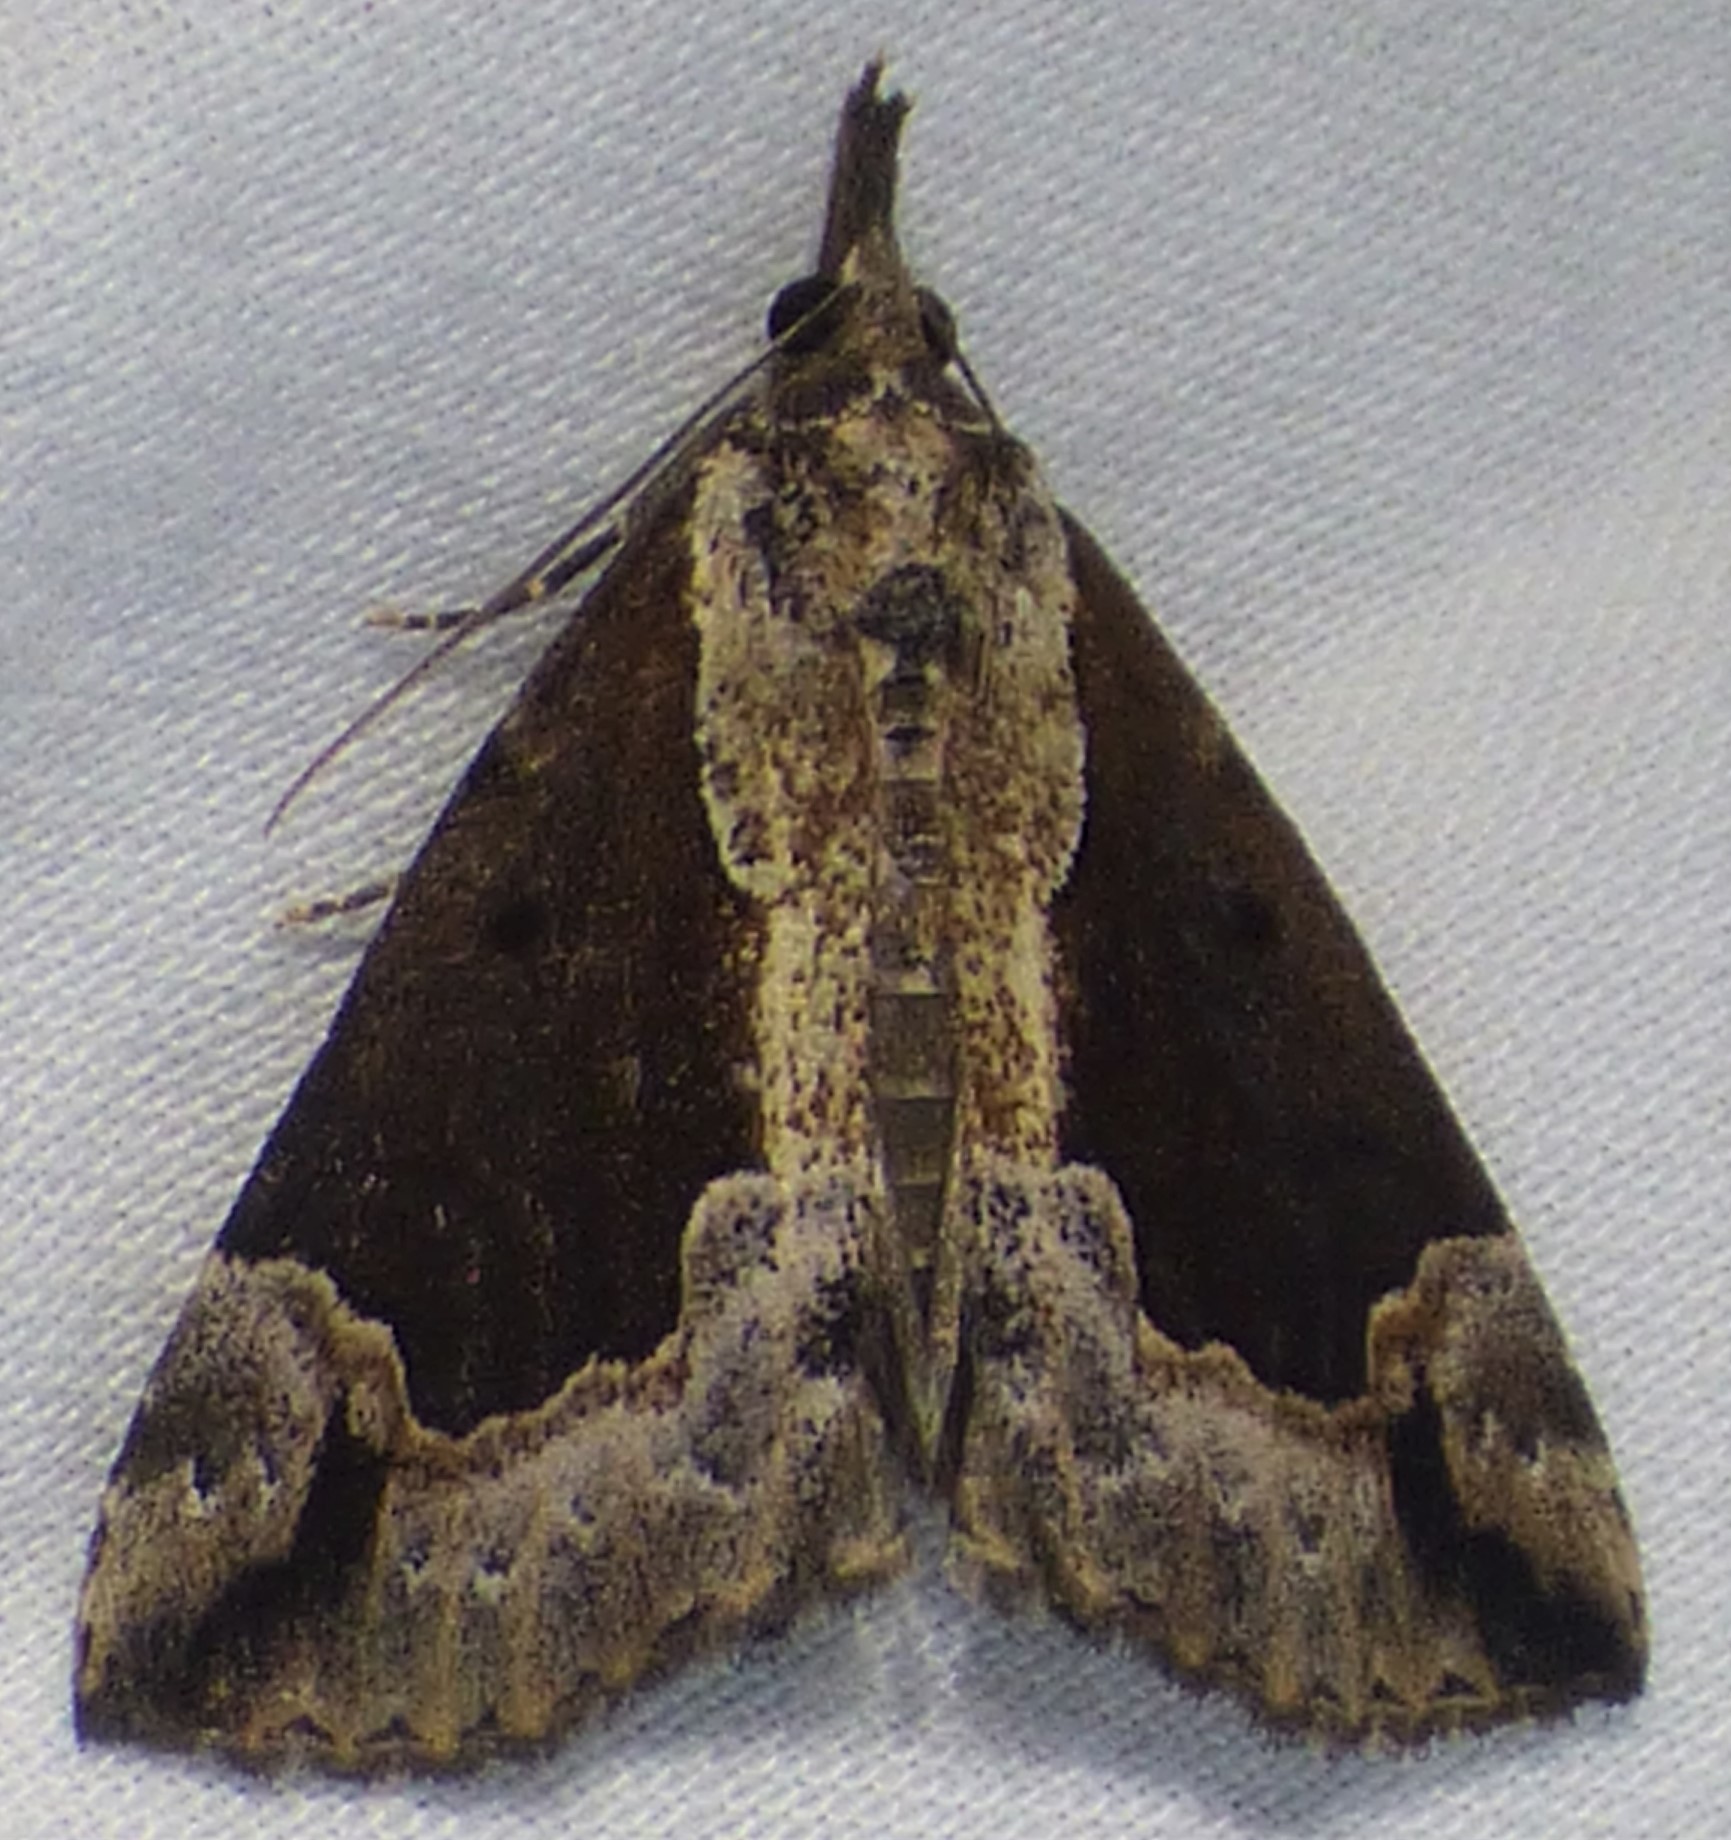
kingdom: Animalia
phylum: Arthropoda
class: Insecta
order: Lepidoptera
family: Erebidae
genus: Hypena
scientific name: Hypena baltimoralis
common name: Baltimore snout
